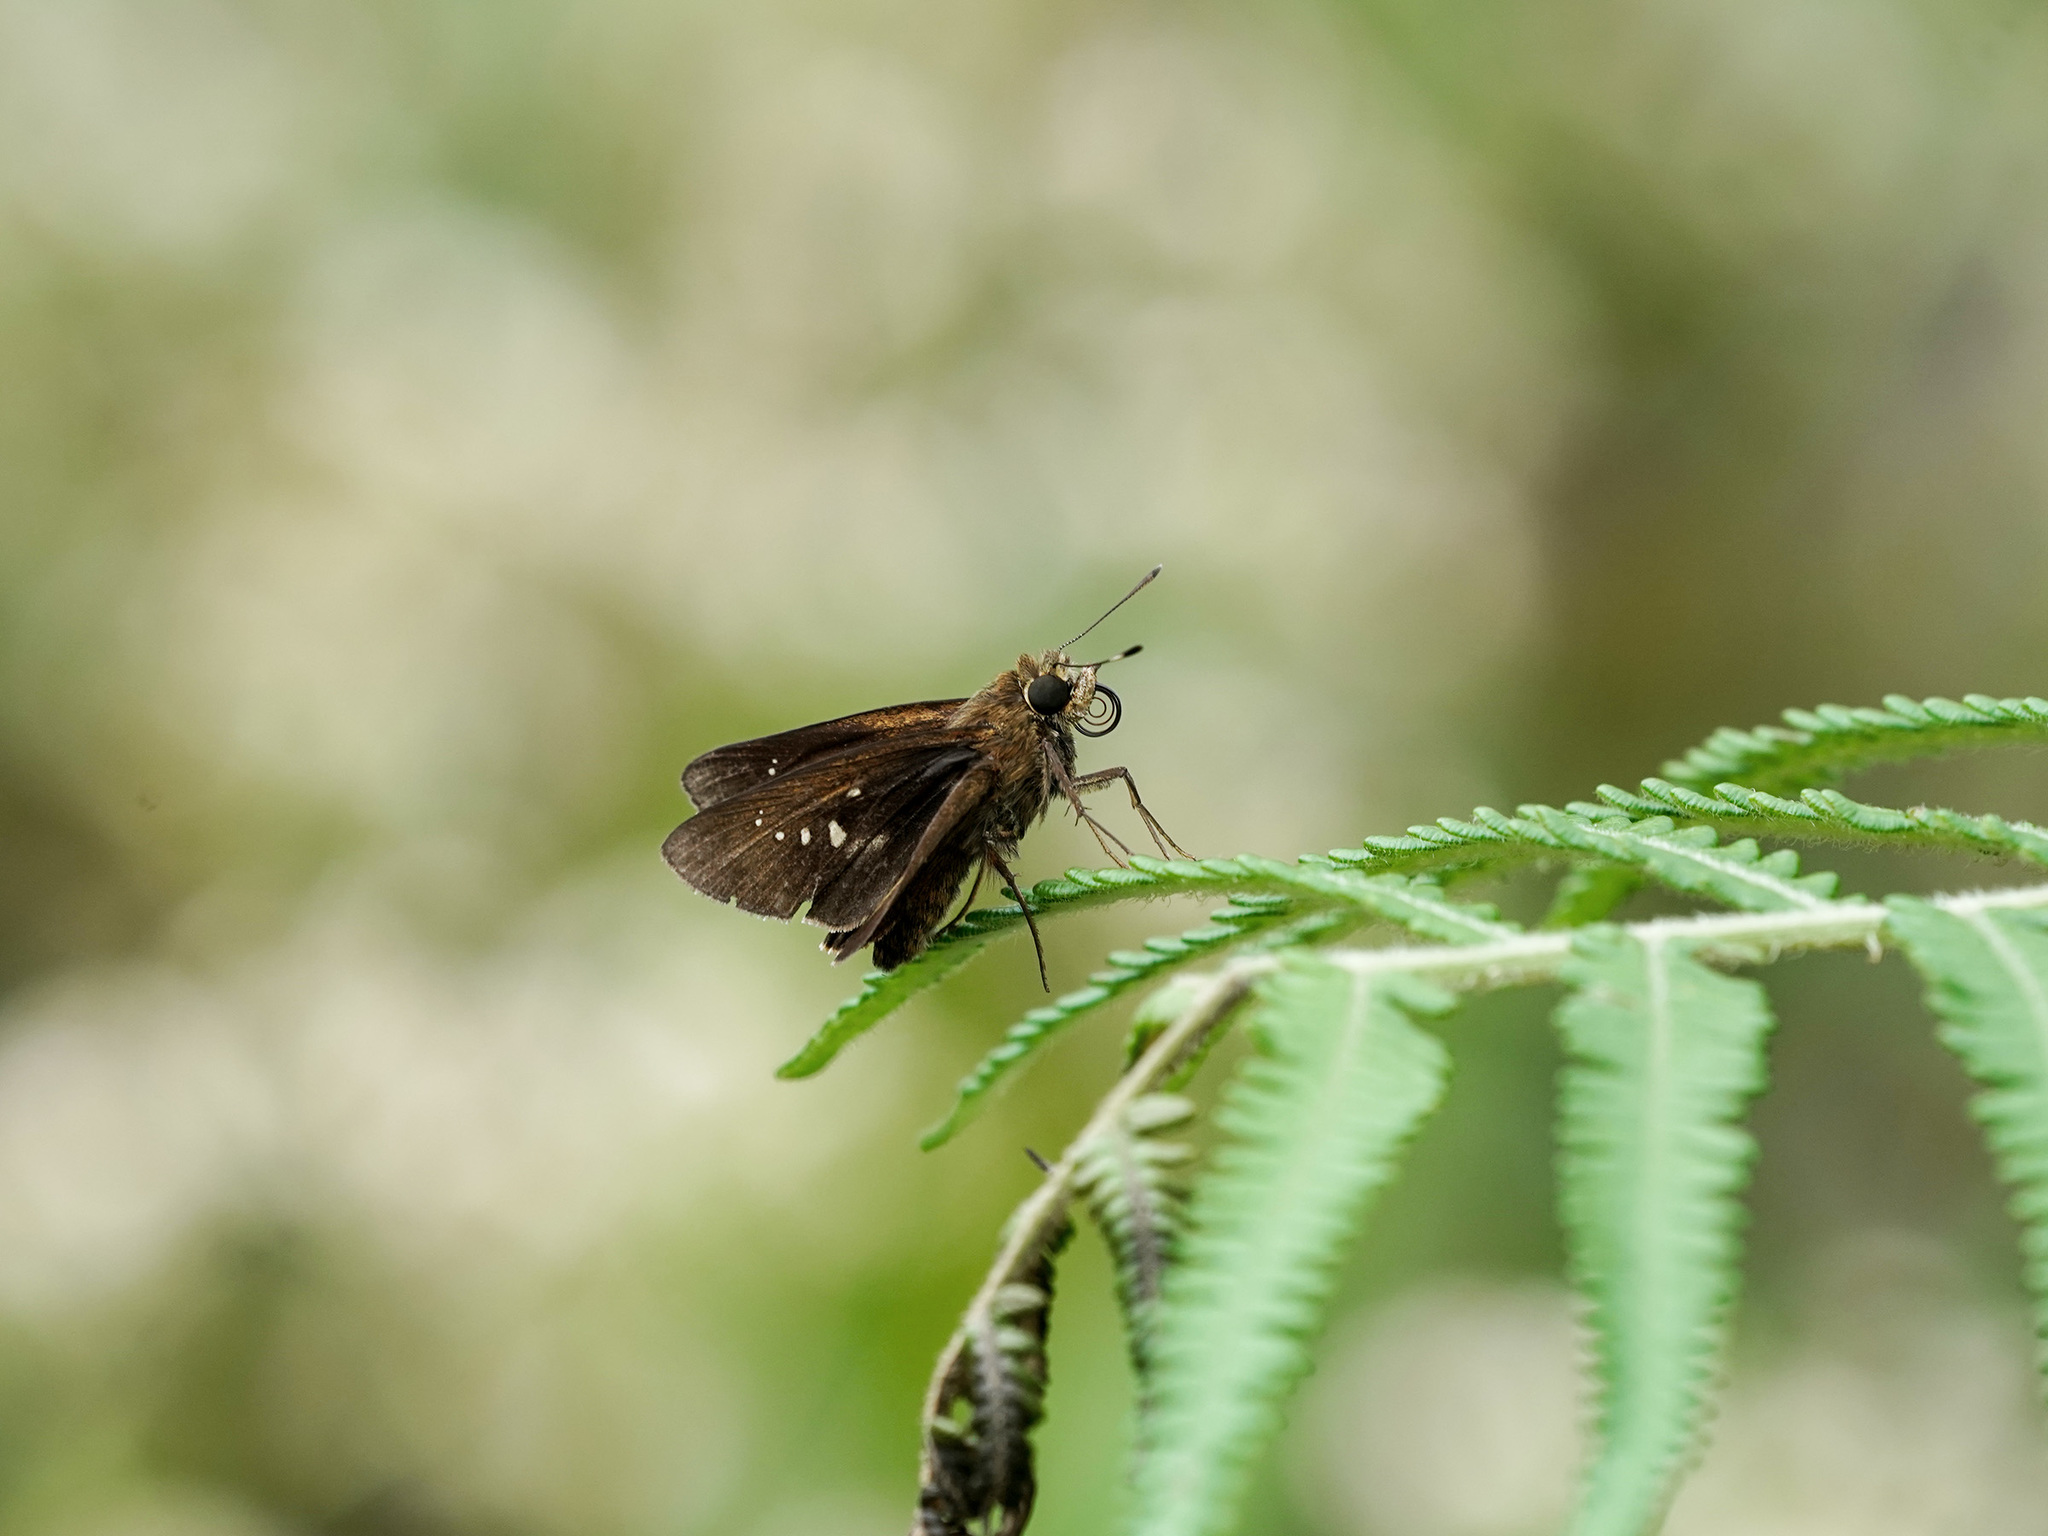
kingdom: Animalia
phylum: Arthropoda
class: Insecta
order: Lepidoptera
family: Hesperiidae
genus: Caltoris
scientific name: Caltoris sirius
